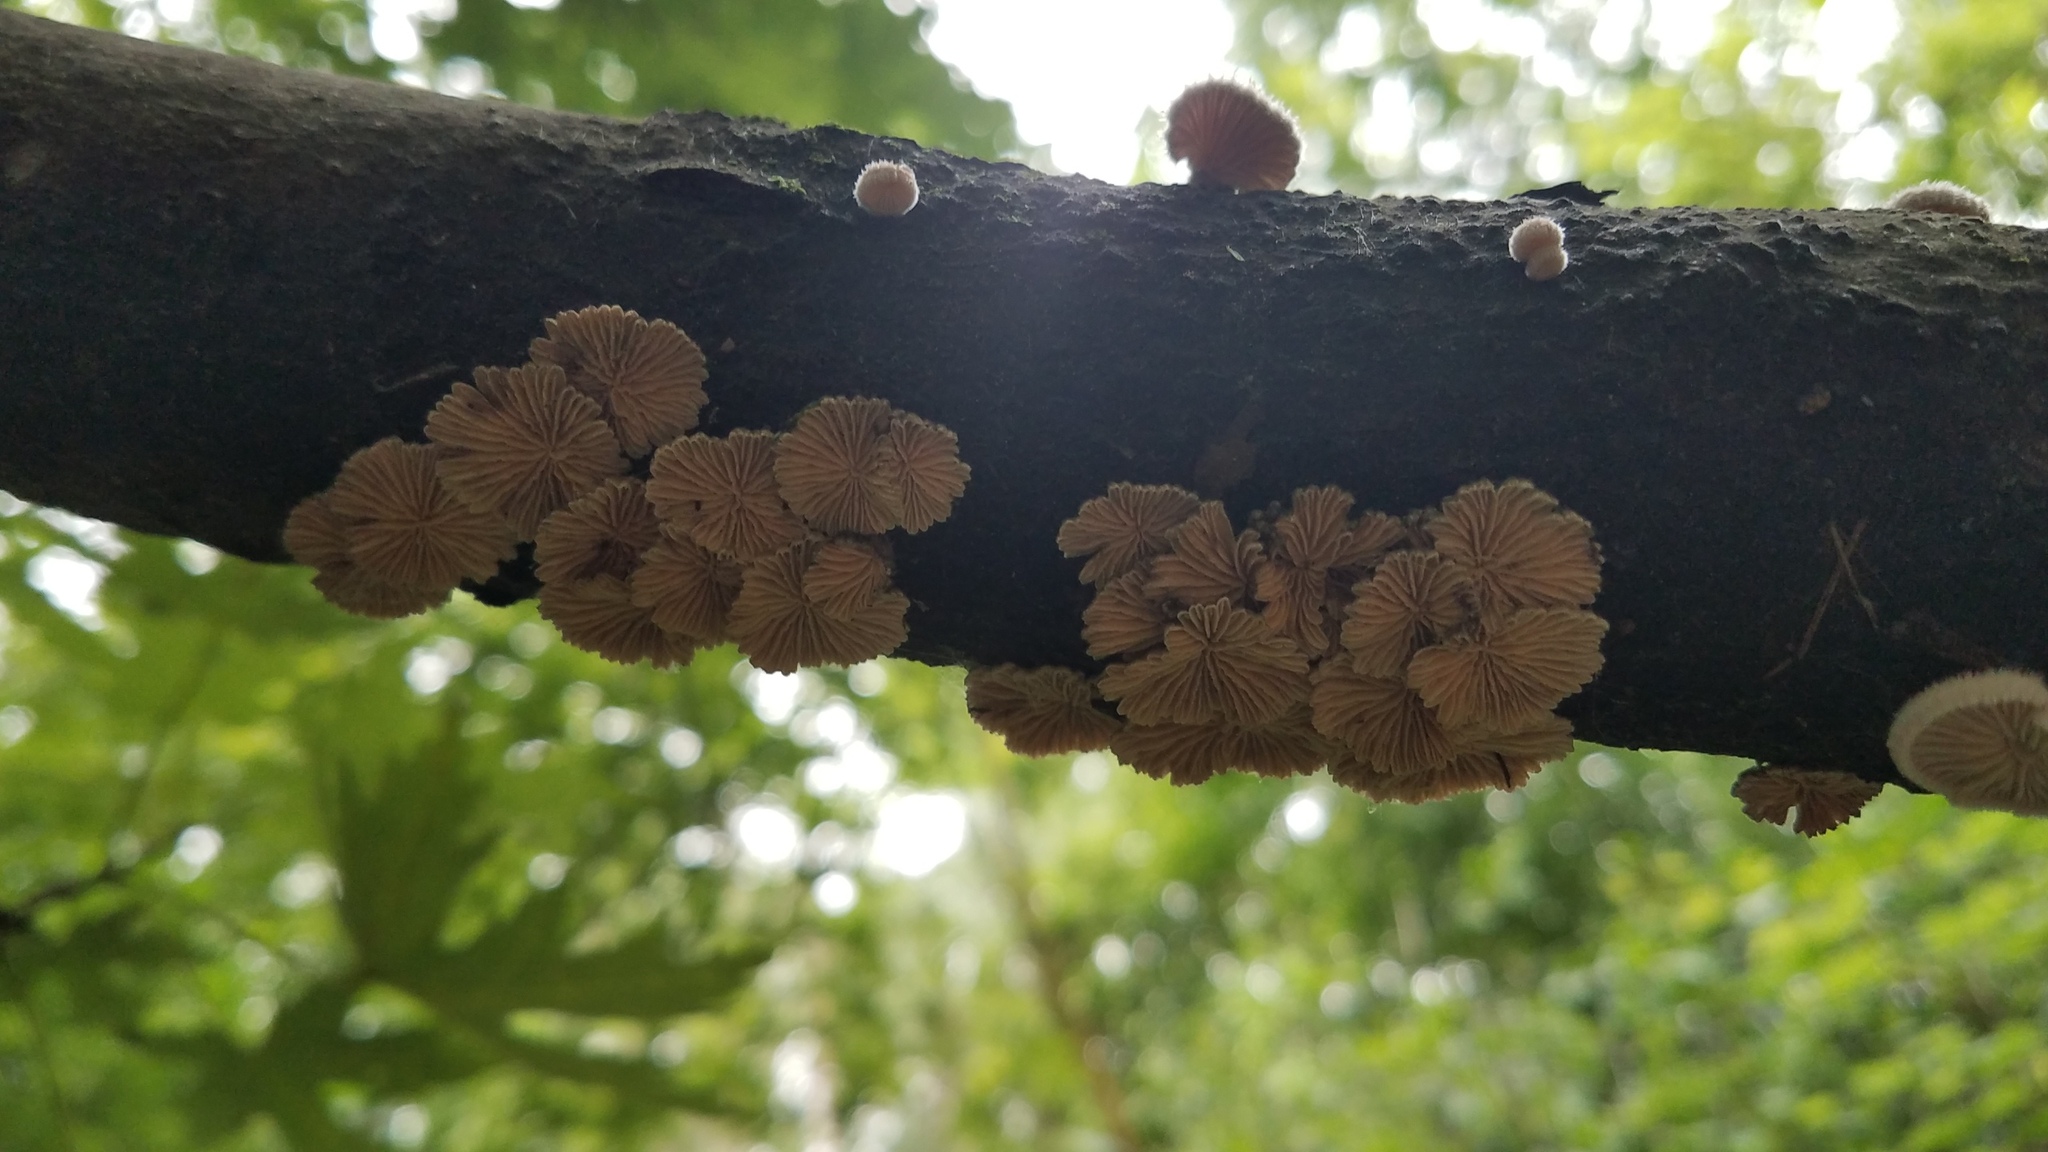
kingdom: Fungi
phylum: Basidiomycota
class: Agaricomycetes
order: Agaricales
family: Schizophyllaceae
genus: Schizophyllum
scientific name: Schizophyllum commune
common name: Common porecrust
